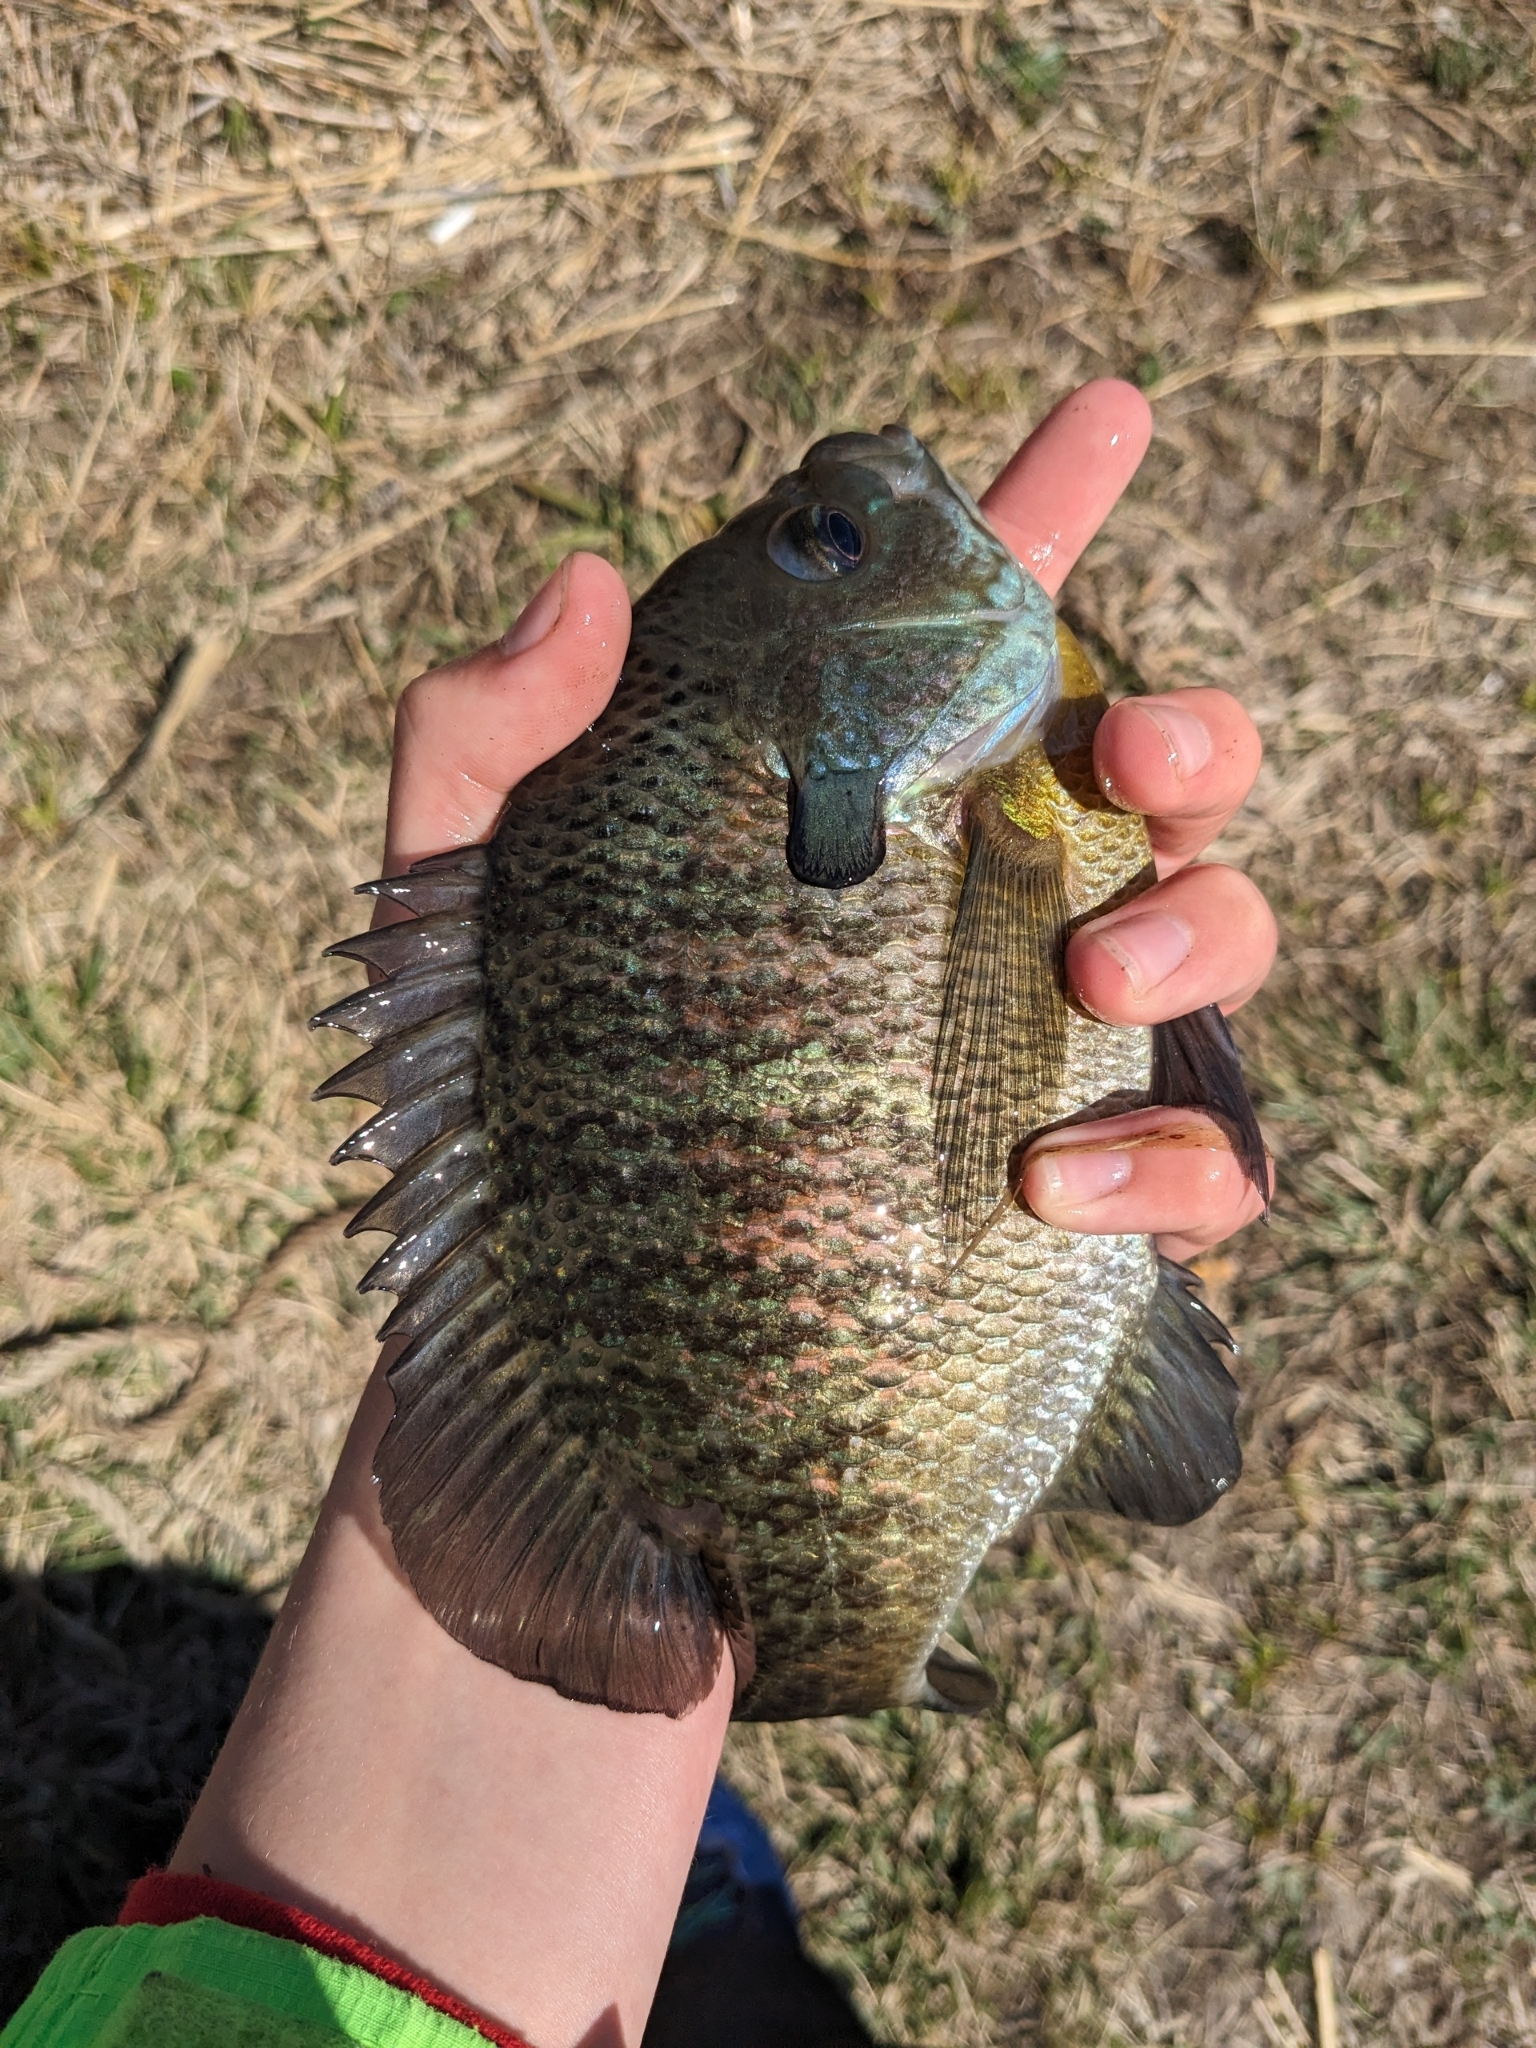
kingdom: Animalia
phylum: Chordata
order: Perciformes
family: Centrarchidae
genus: Lepomis
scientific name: Lepomis macrochirus
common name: Bluegill
